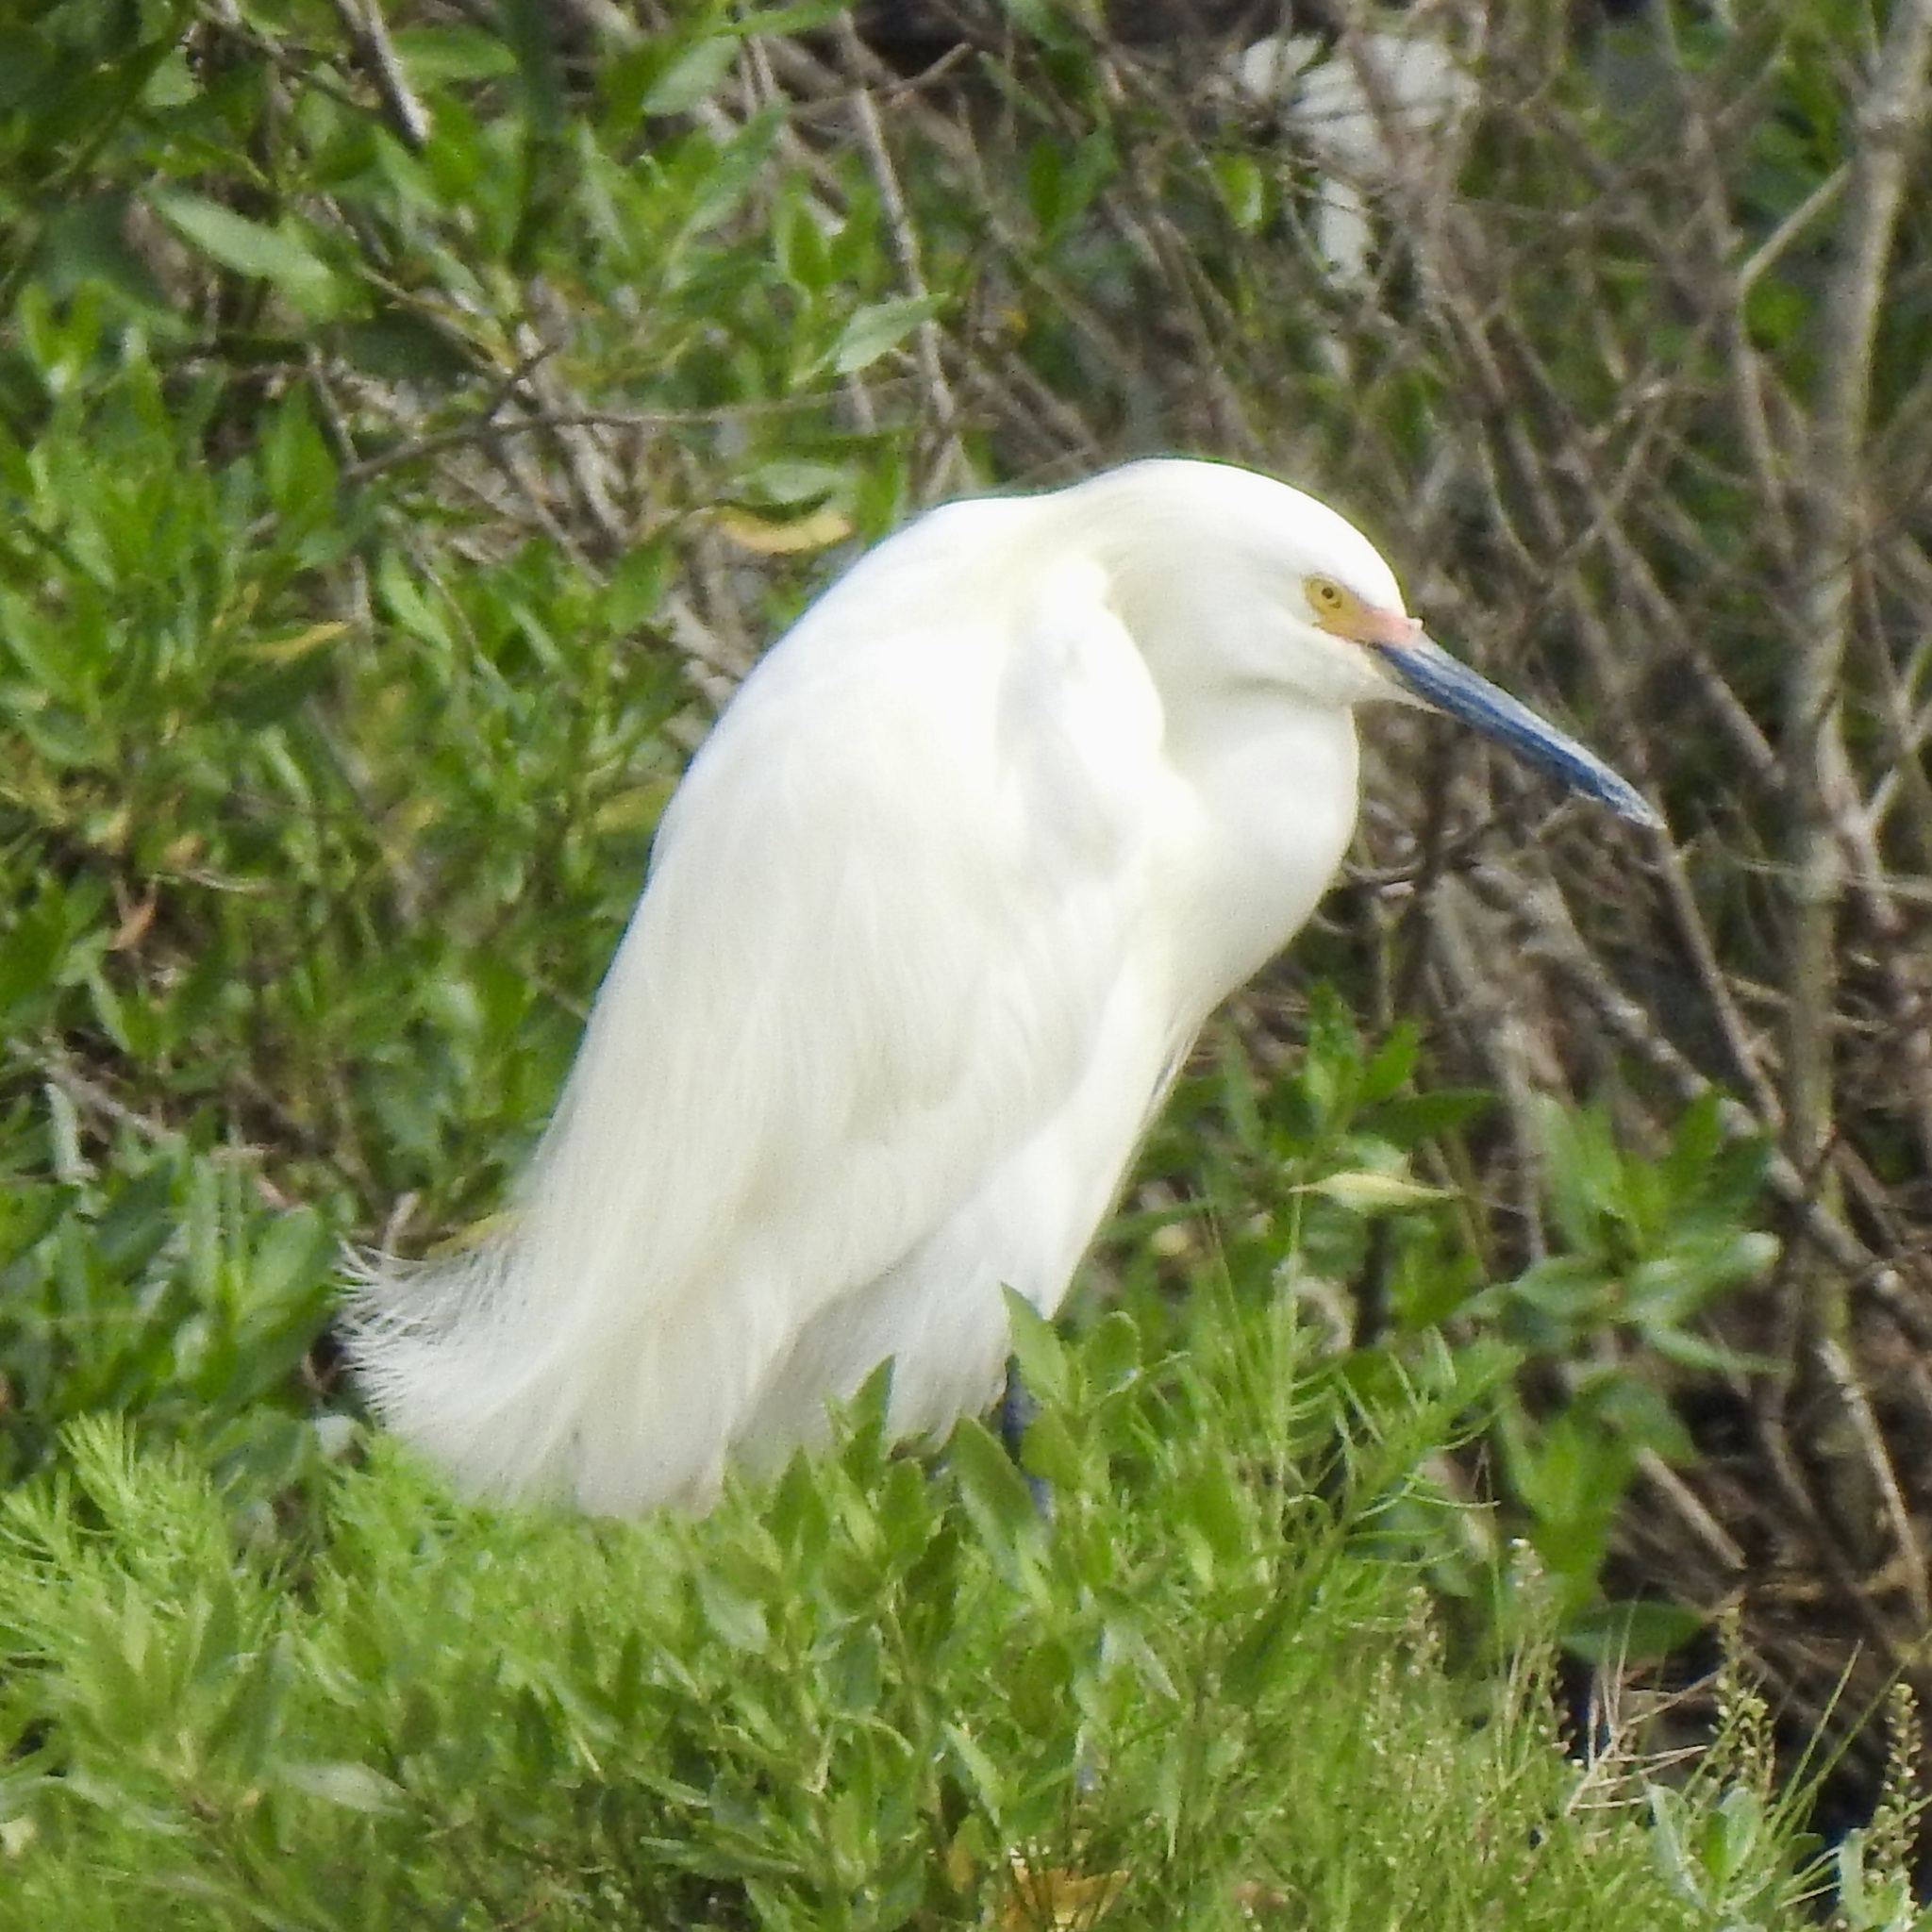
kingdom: Animalia
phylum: Chordata
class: Aves
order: Pelecaniformes
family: Ardeidae
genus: Egretta
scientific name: Egretta thula
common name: Snowy egret
